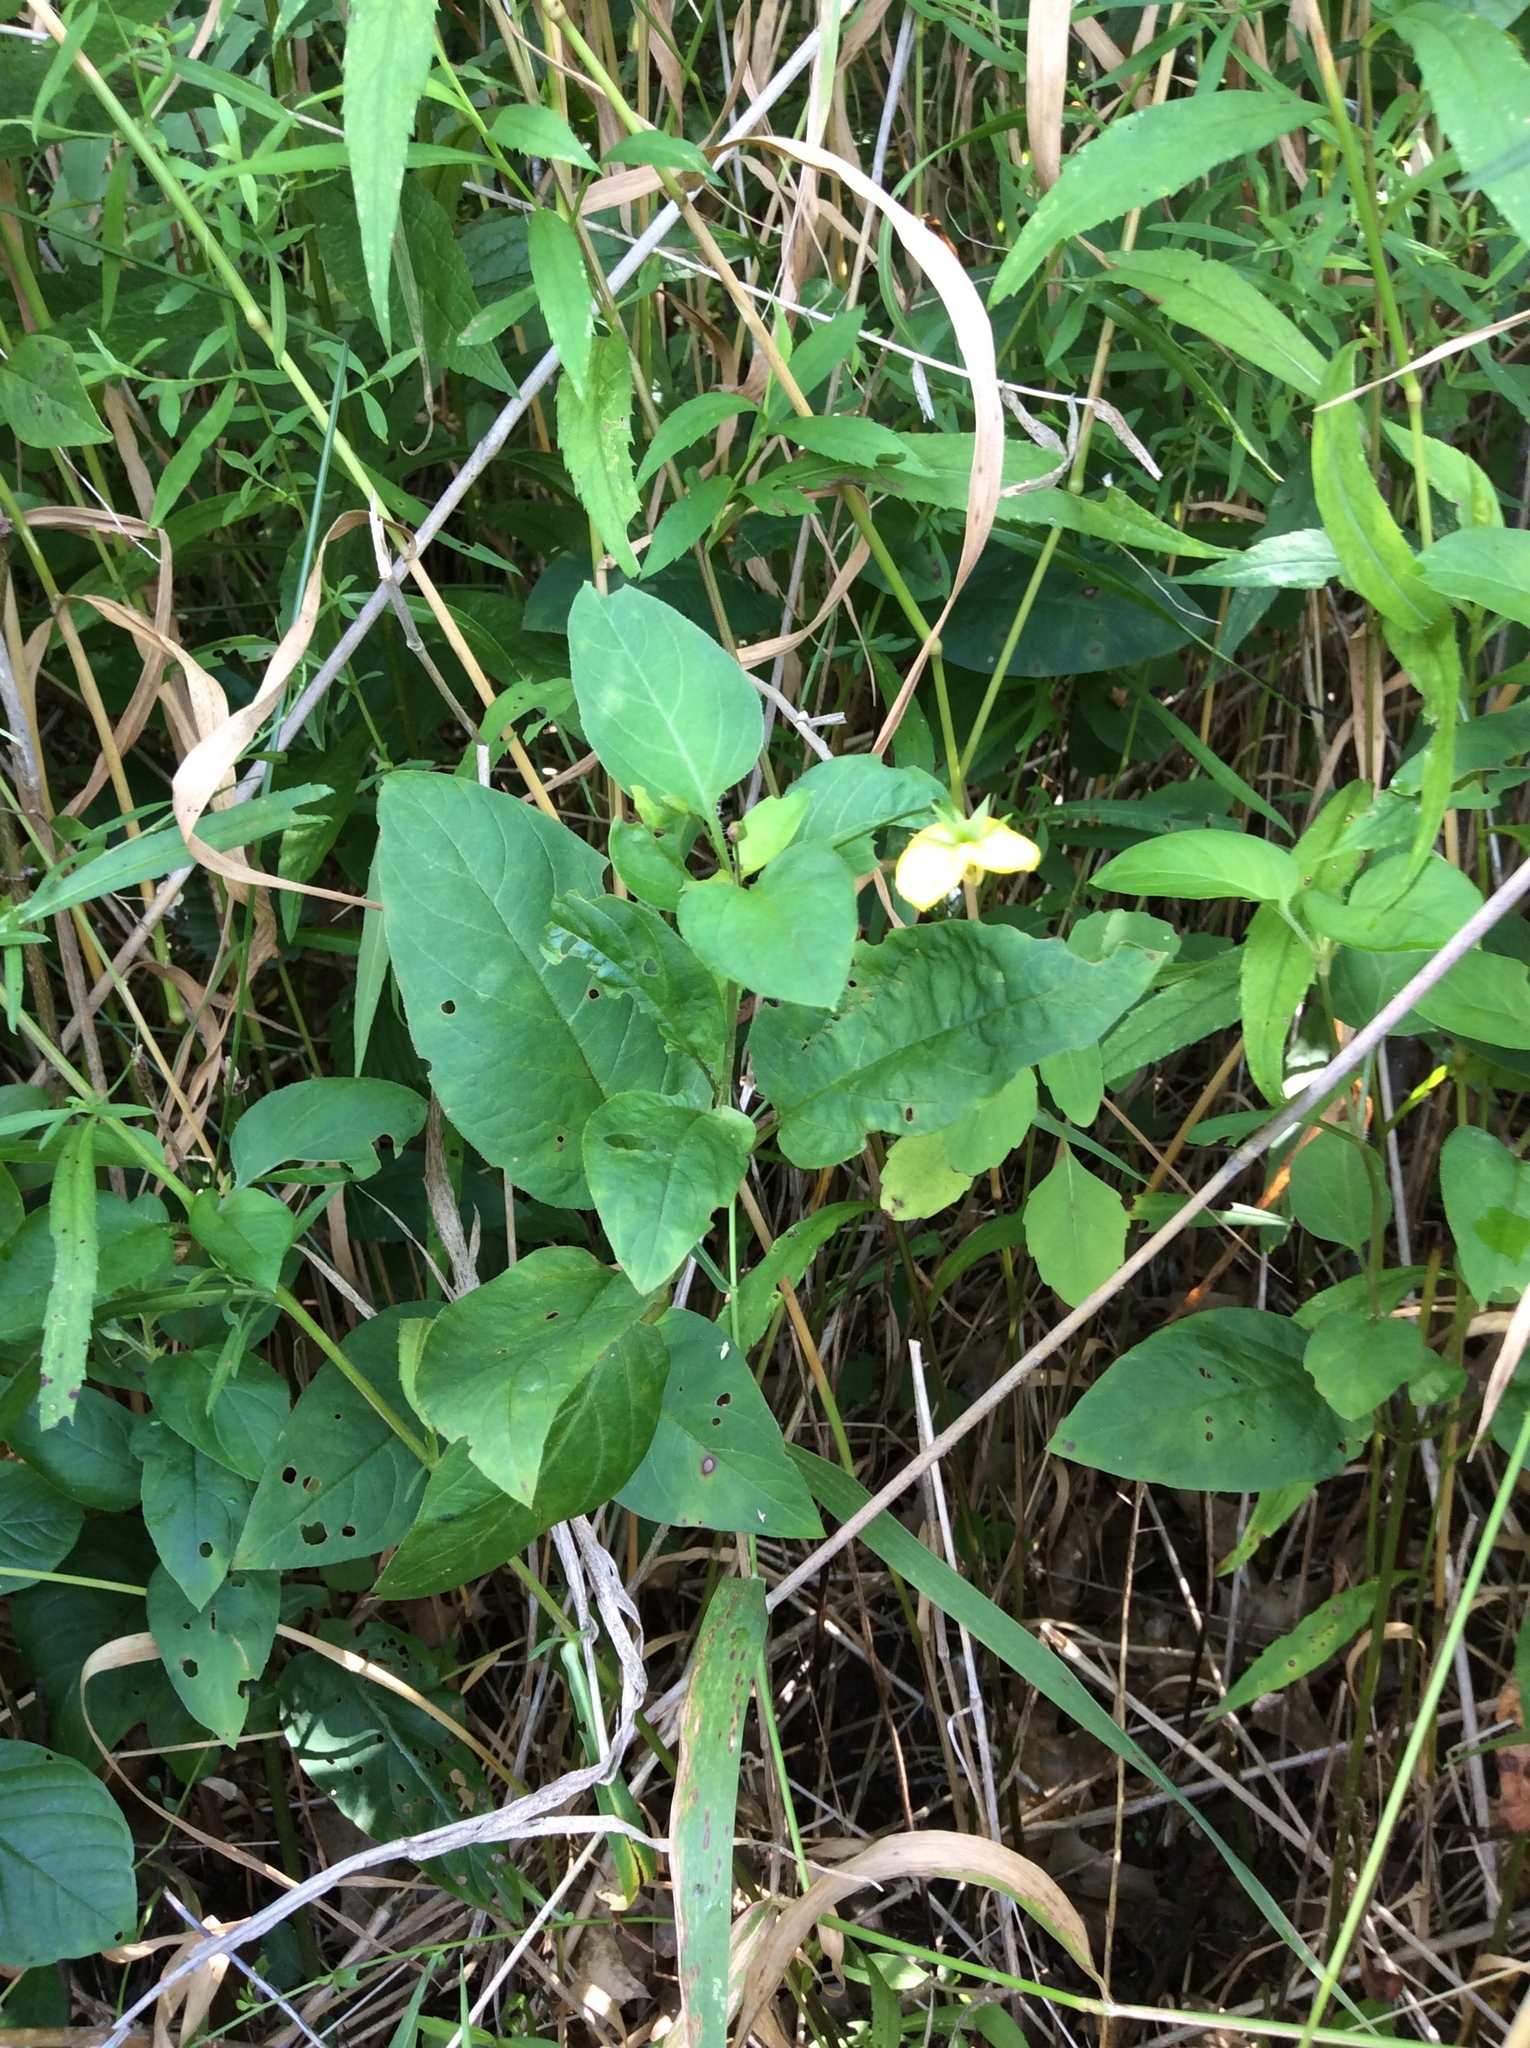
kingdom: Plantae
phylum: Tracheophyta
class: Magnoliopsida
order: Ericales
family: Primulaceae
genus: Lysimachia
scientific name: Lysimachia ciliata
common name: Fringed loosestrife
